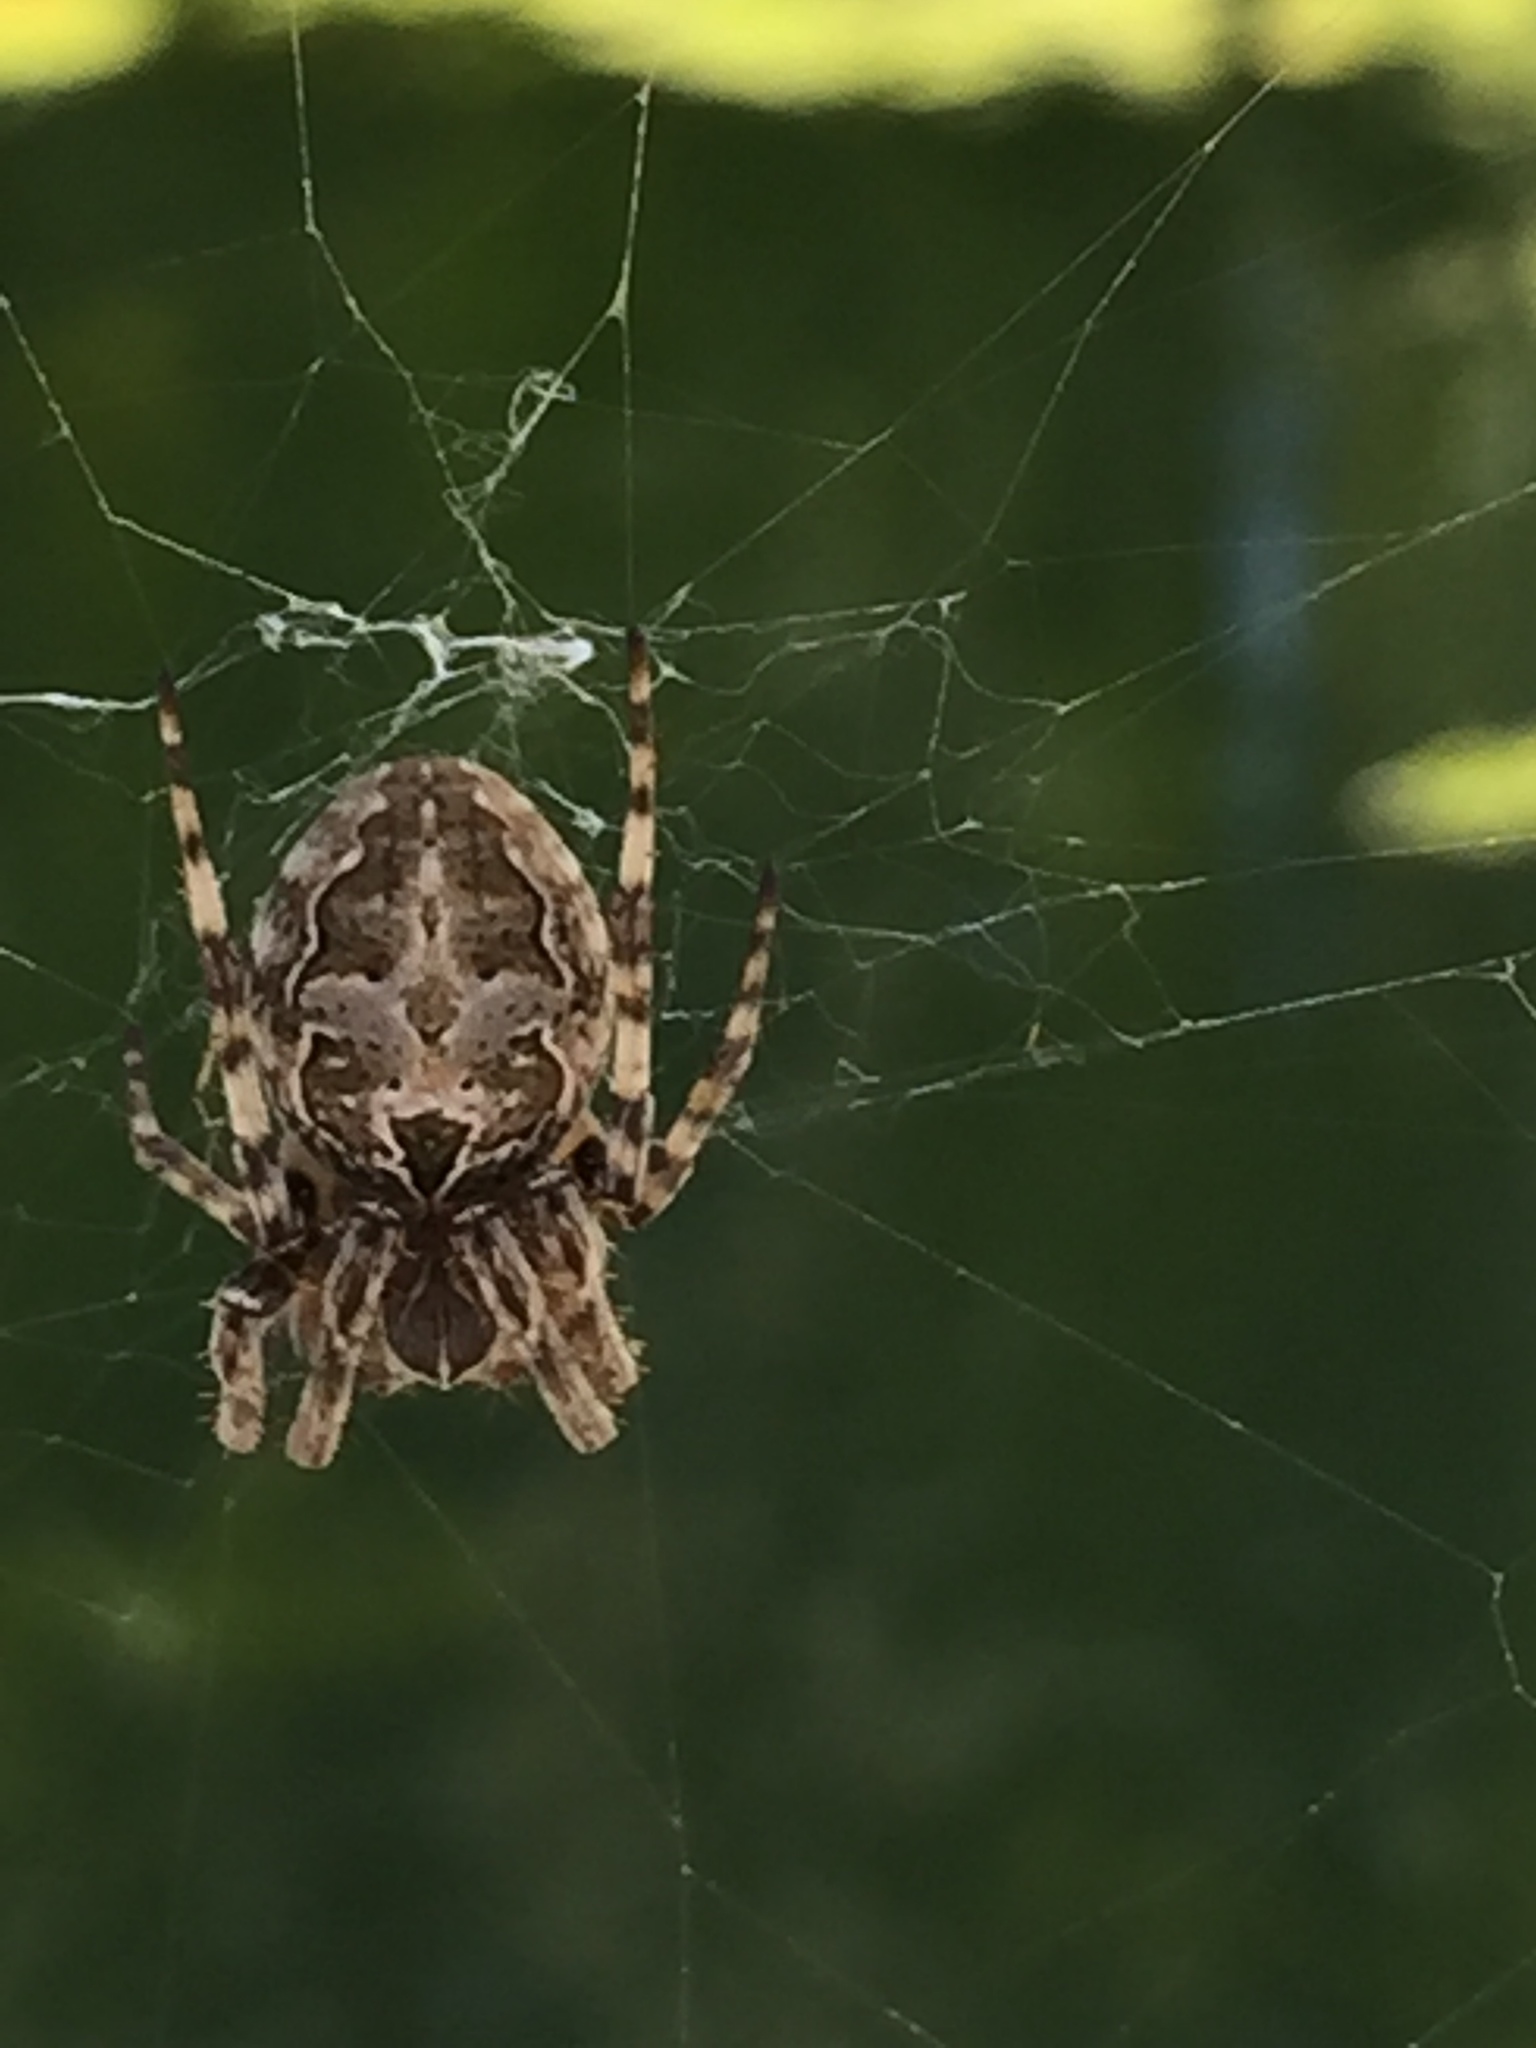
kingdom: Animalia
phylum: Arthropoda
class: Arachnida
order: Araneae
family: Araneidae
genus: Larinioides
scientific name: Larinioides sclopetarius
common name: Bridge orbweaver
